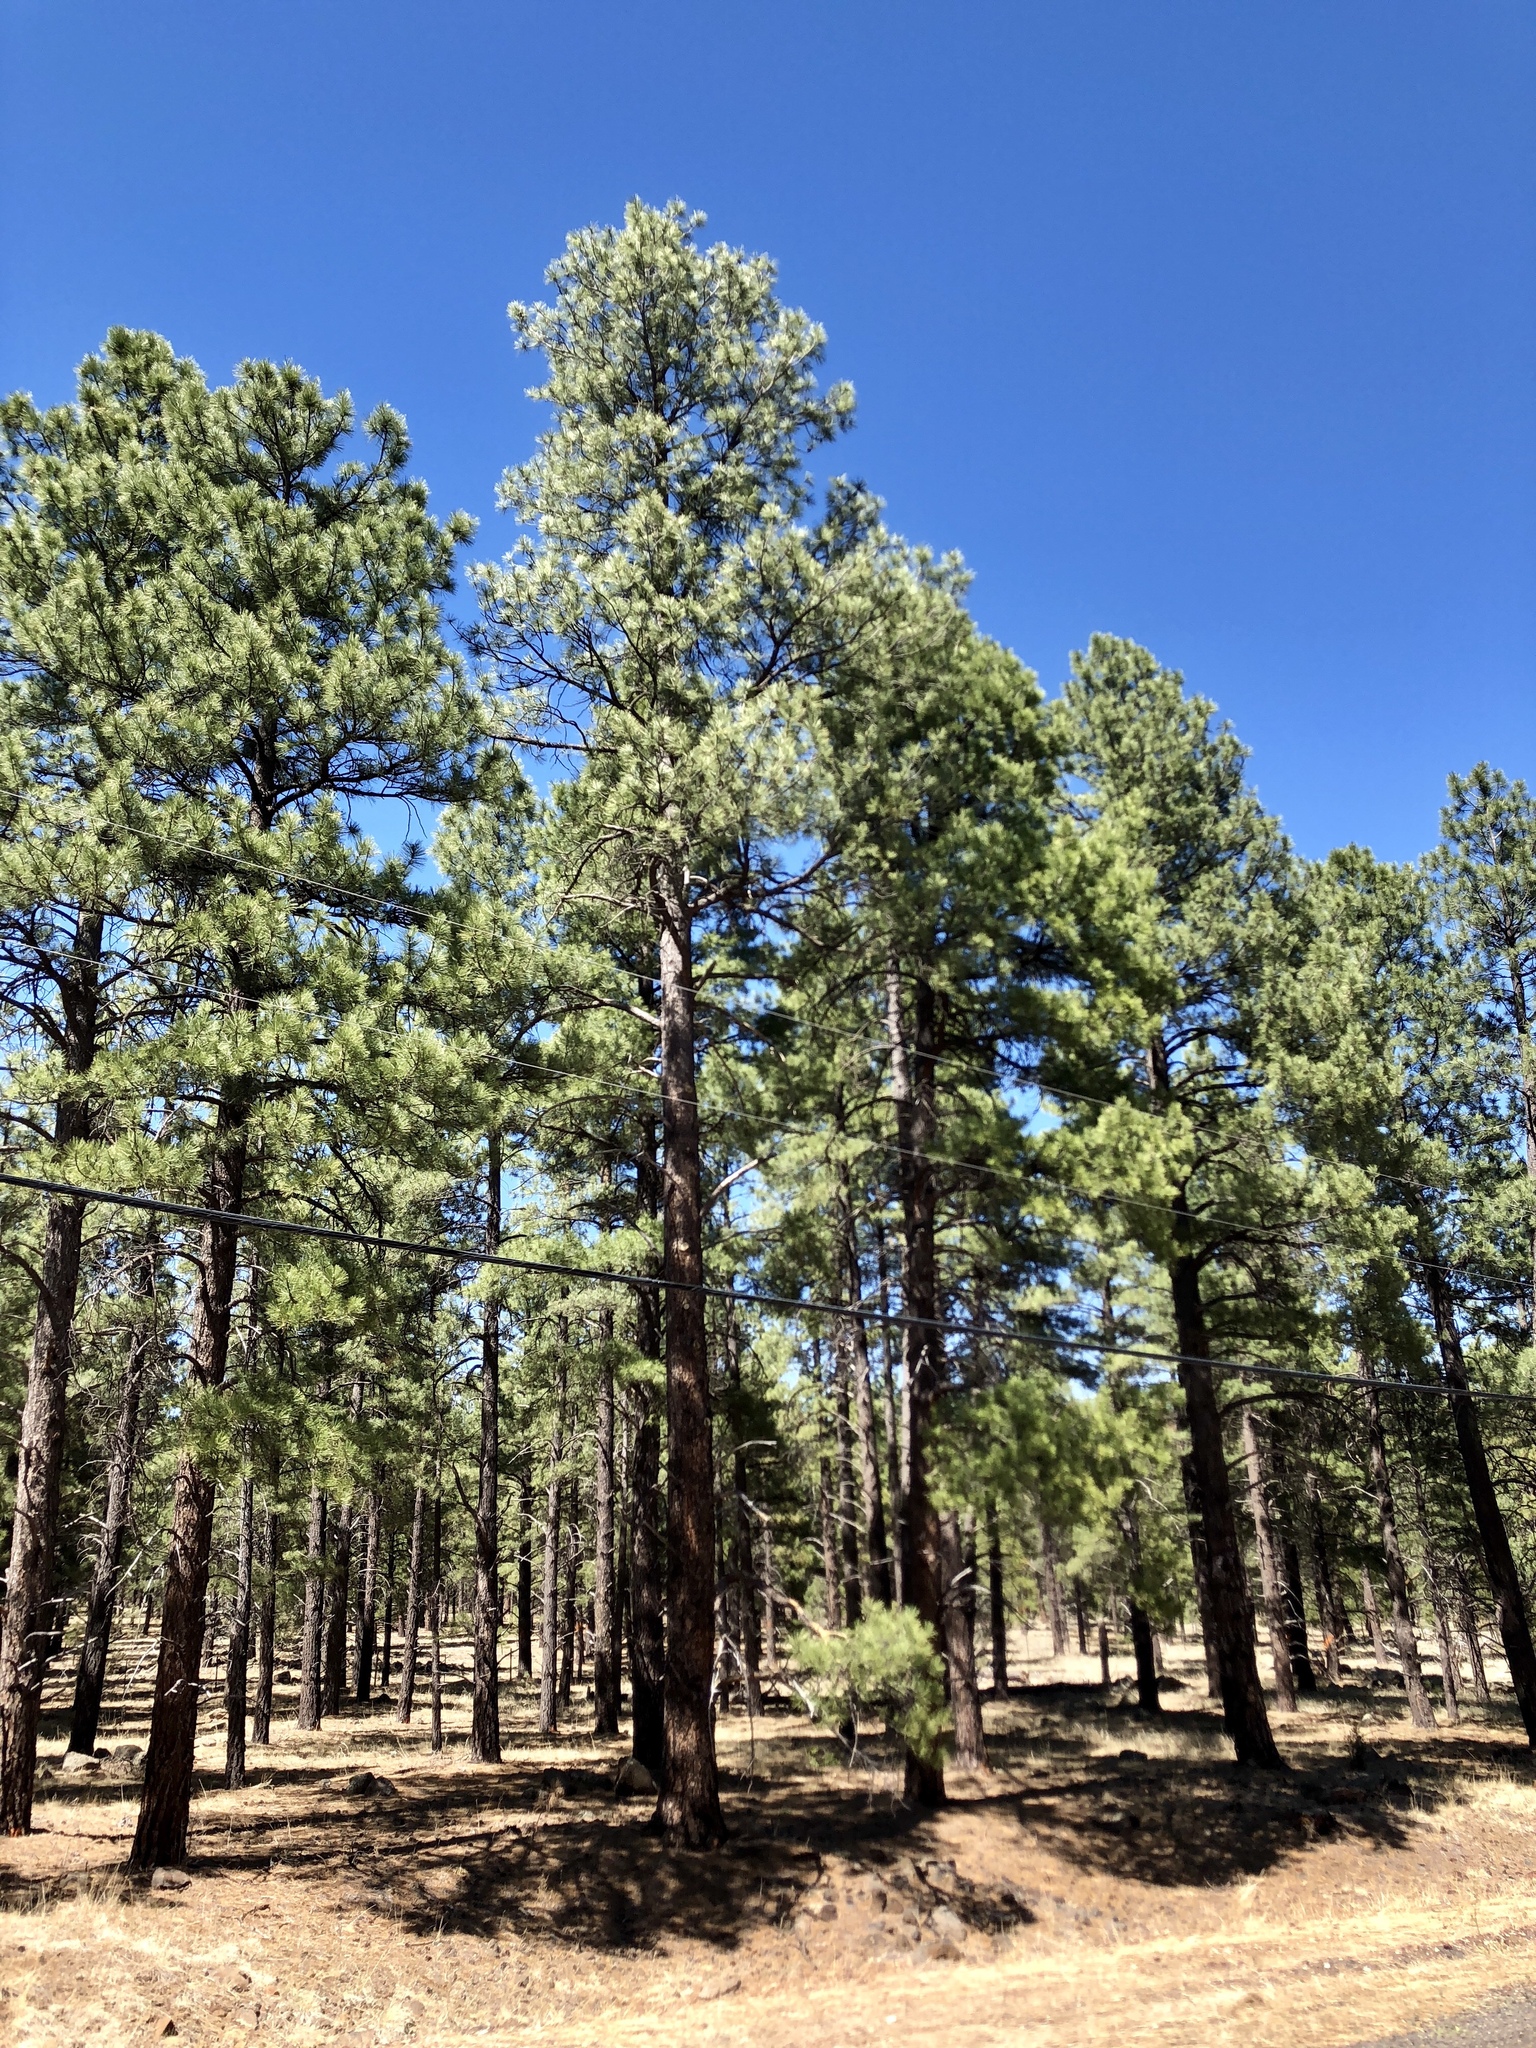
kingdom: Plantae
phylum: Tracheophyta
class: Pinopsida
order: Pinales
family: Pinaceae
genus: Pinus
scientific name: Pinus ponderosa
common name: Western yellow-pine
